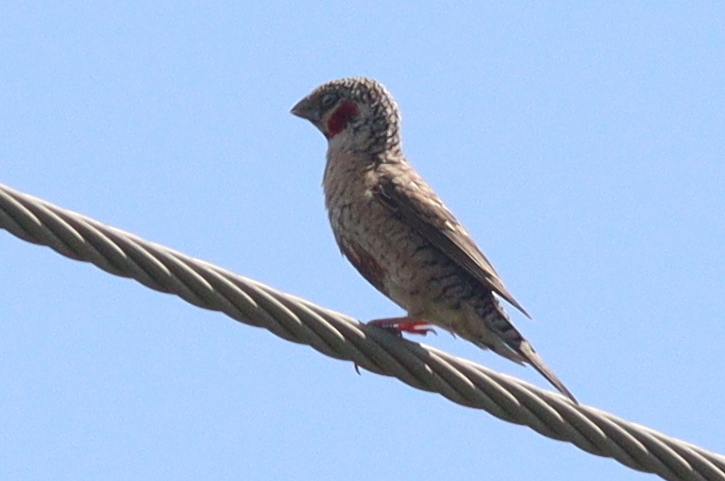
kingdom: Animalia
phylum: Chordata
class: Aves
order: Passeriformes
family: Estrildidae
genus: Amadina
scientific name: Amadina fasciata
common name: Cut-throat finch
